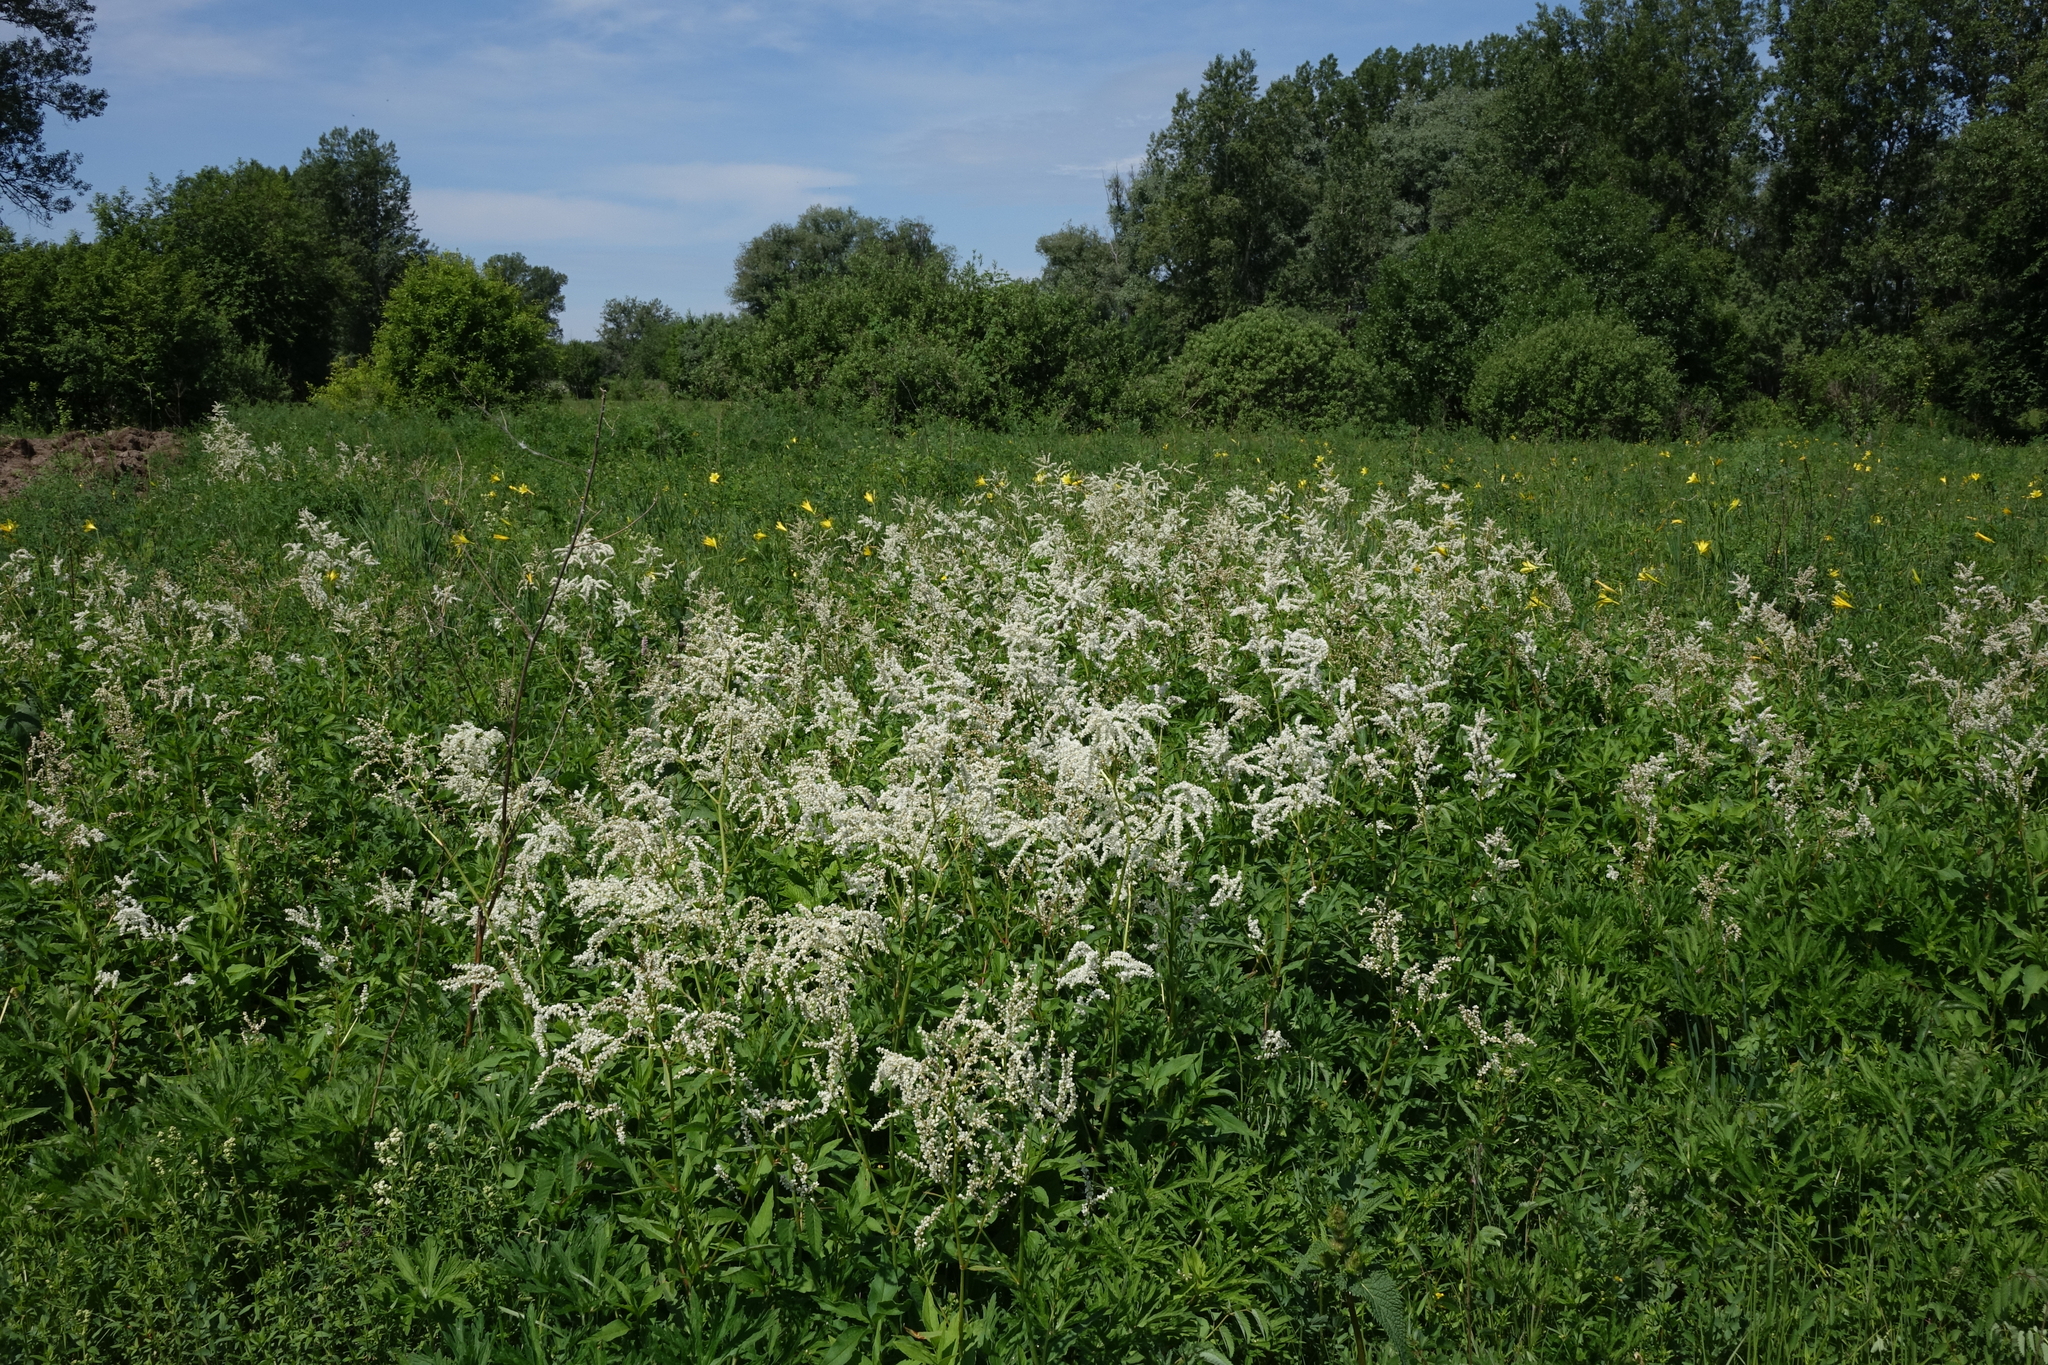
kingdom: Plantae
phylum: Tracheophyta
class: Magnoliopsida
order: Caryophyllales
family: Polygonaceae
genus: Koenigia
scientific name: Koenigia alpina
